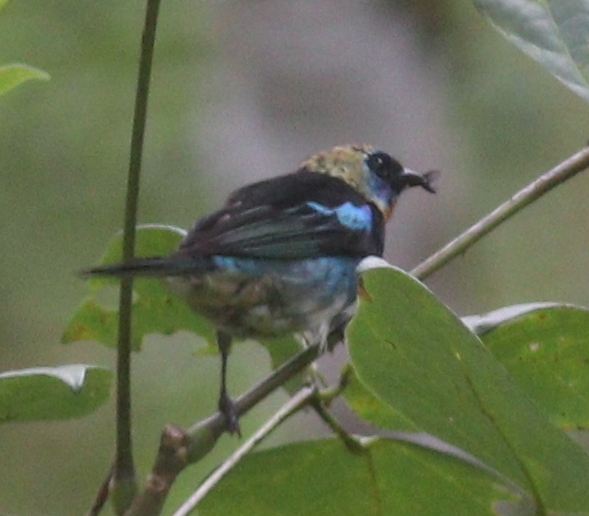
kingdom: Animalia
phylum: Chordata
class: Aves
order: Passeriformes
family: Thraupidae
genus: Stilpnia
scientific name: Stilpnia larvata
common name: Golden-hooded tanager
